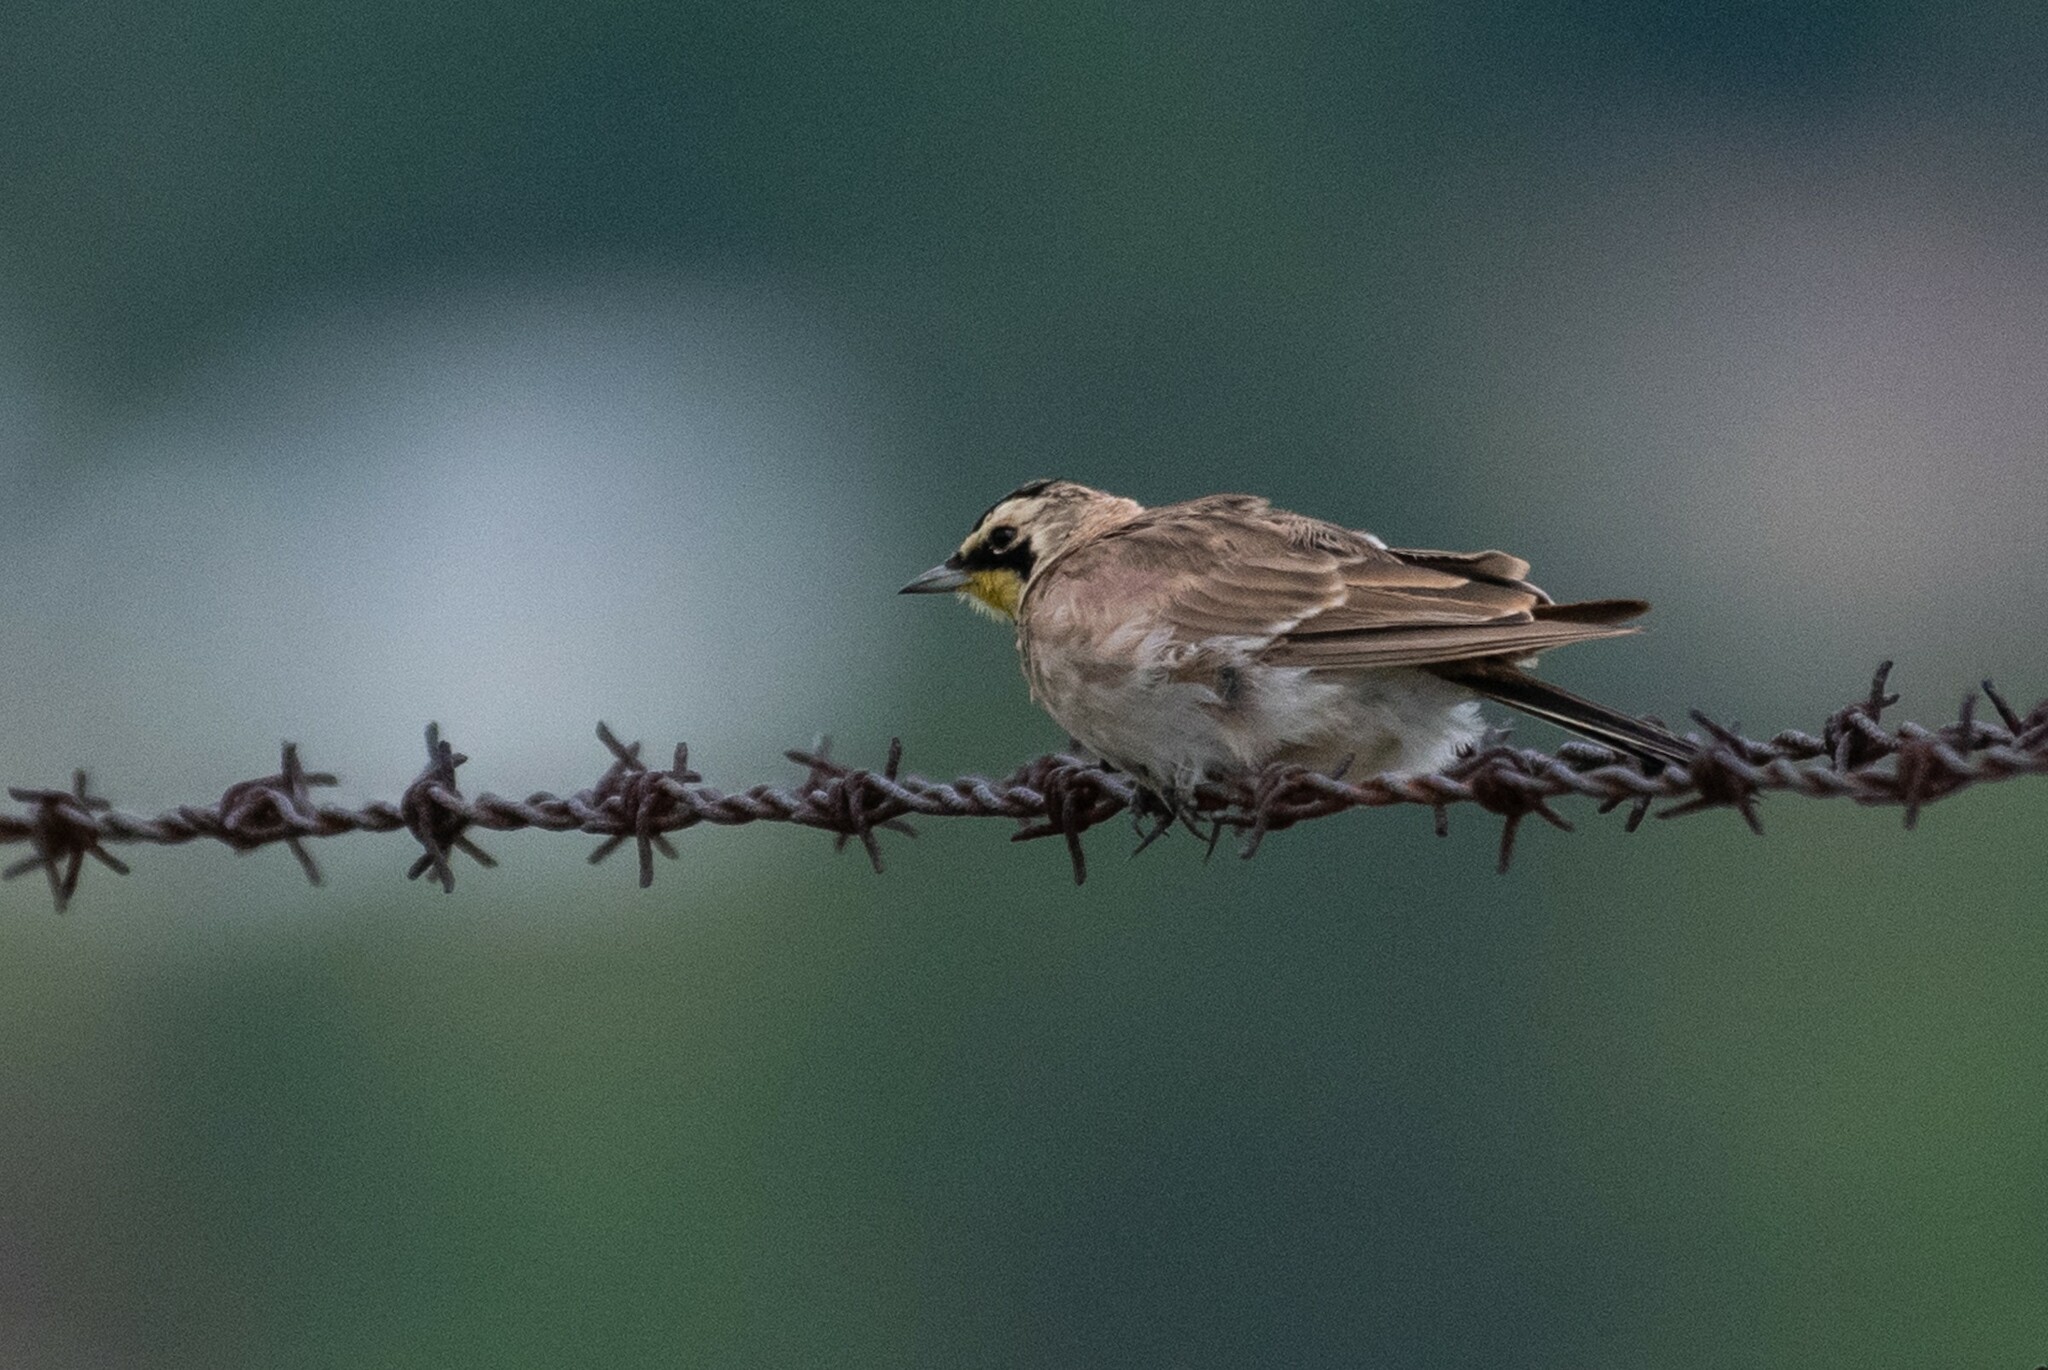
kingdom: Animalia
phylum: Chordata
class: Aves
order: Passeriformes
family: Alaudidae
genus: Eremophila
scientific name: Eremophila alpestris
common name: Horned lark
